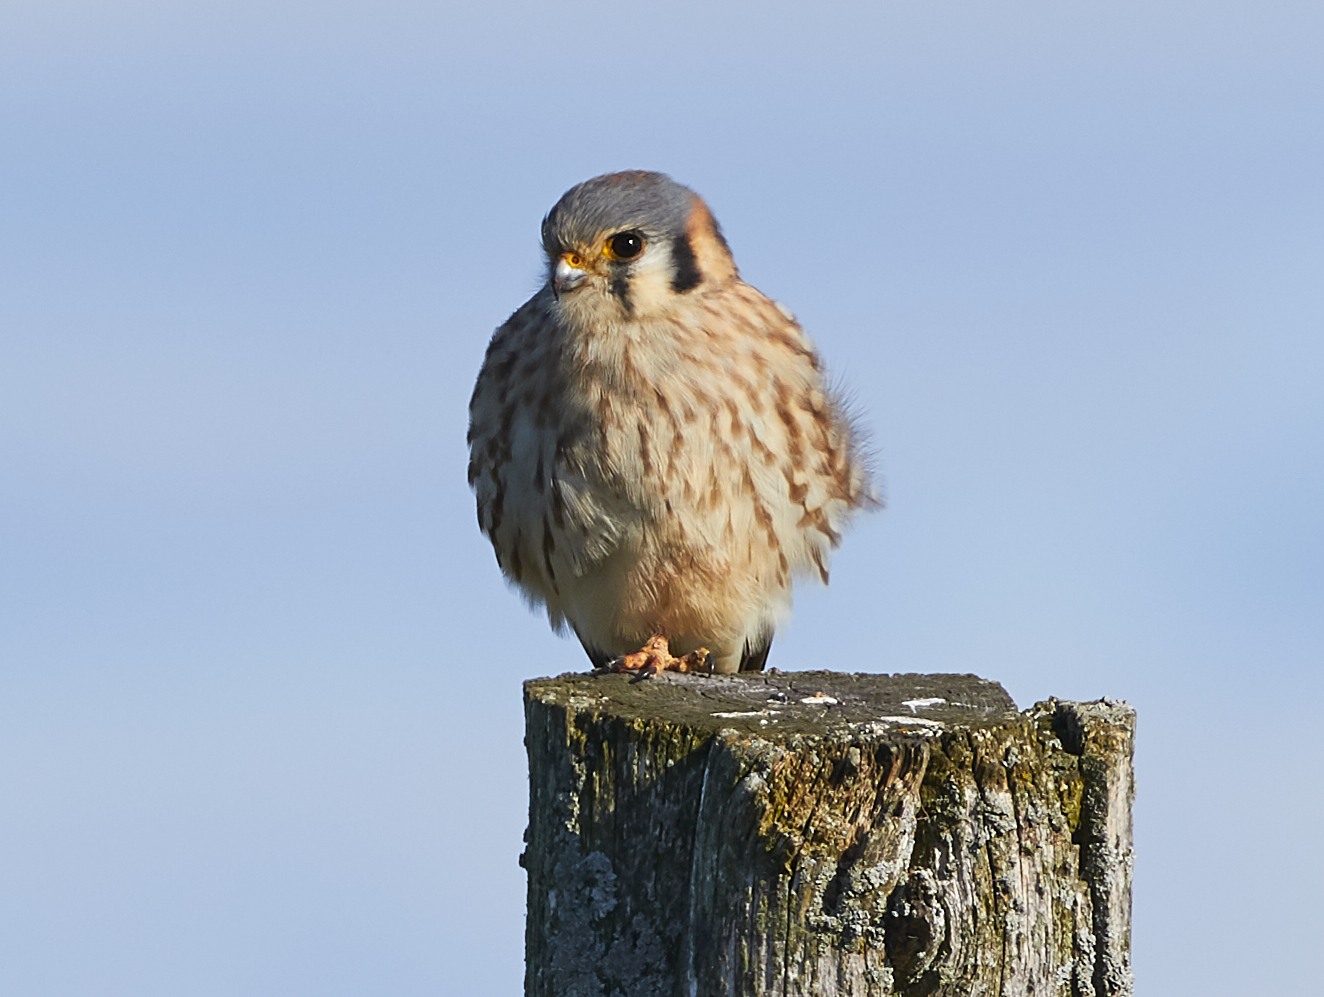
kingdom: Animalia
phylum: Chordata
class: Aves
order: Falconiformes
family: Falconidae
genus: Falco
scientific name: Falco sparverius
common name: American kestrel
